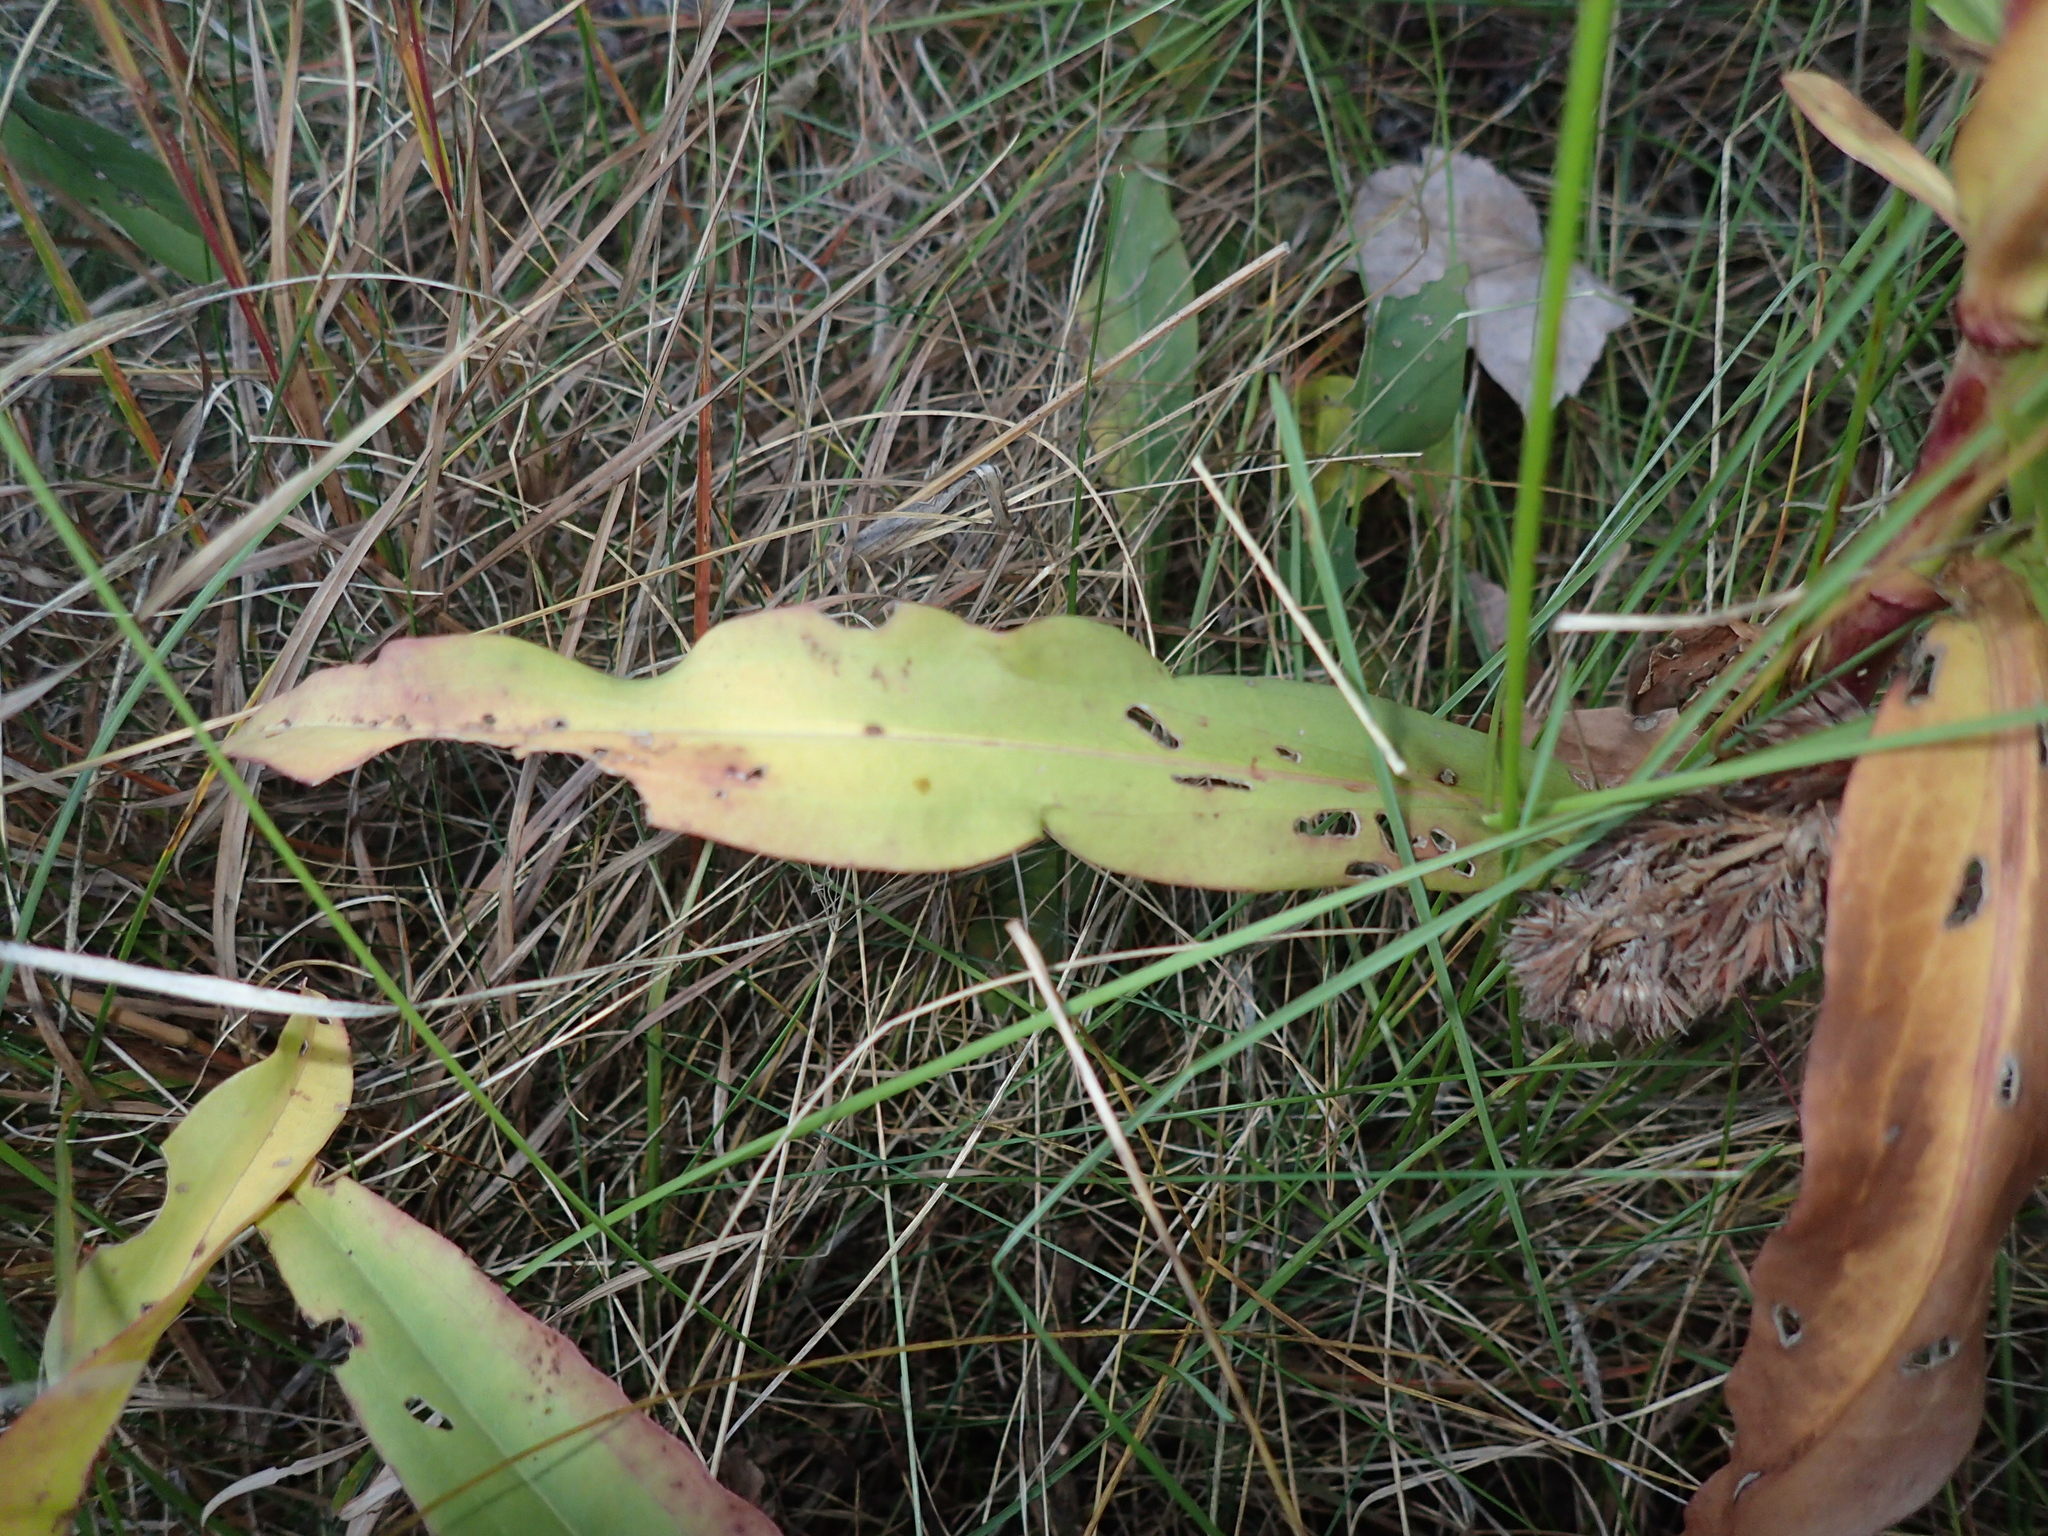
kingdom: Plantae
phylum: Tracheophyta
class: Magnoliopsida
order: Asterales
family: Asteraceae
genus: Solidago
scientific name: Solidago sempervirens
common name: Salt-marsh goldenrod
